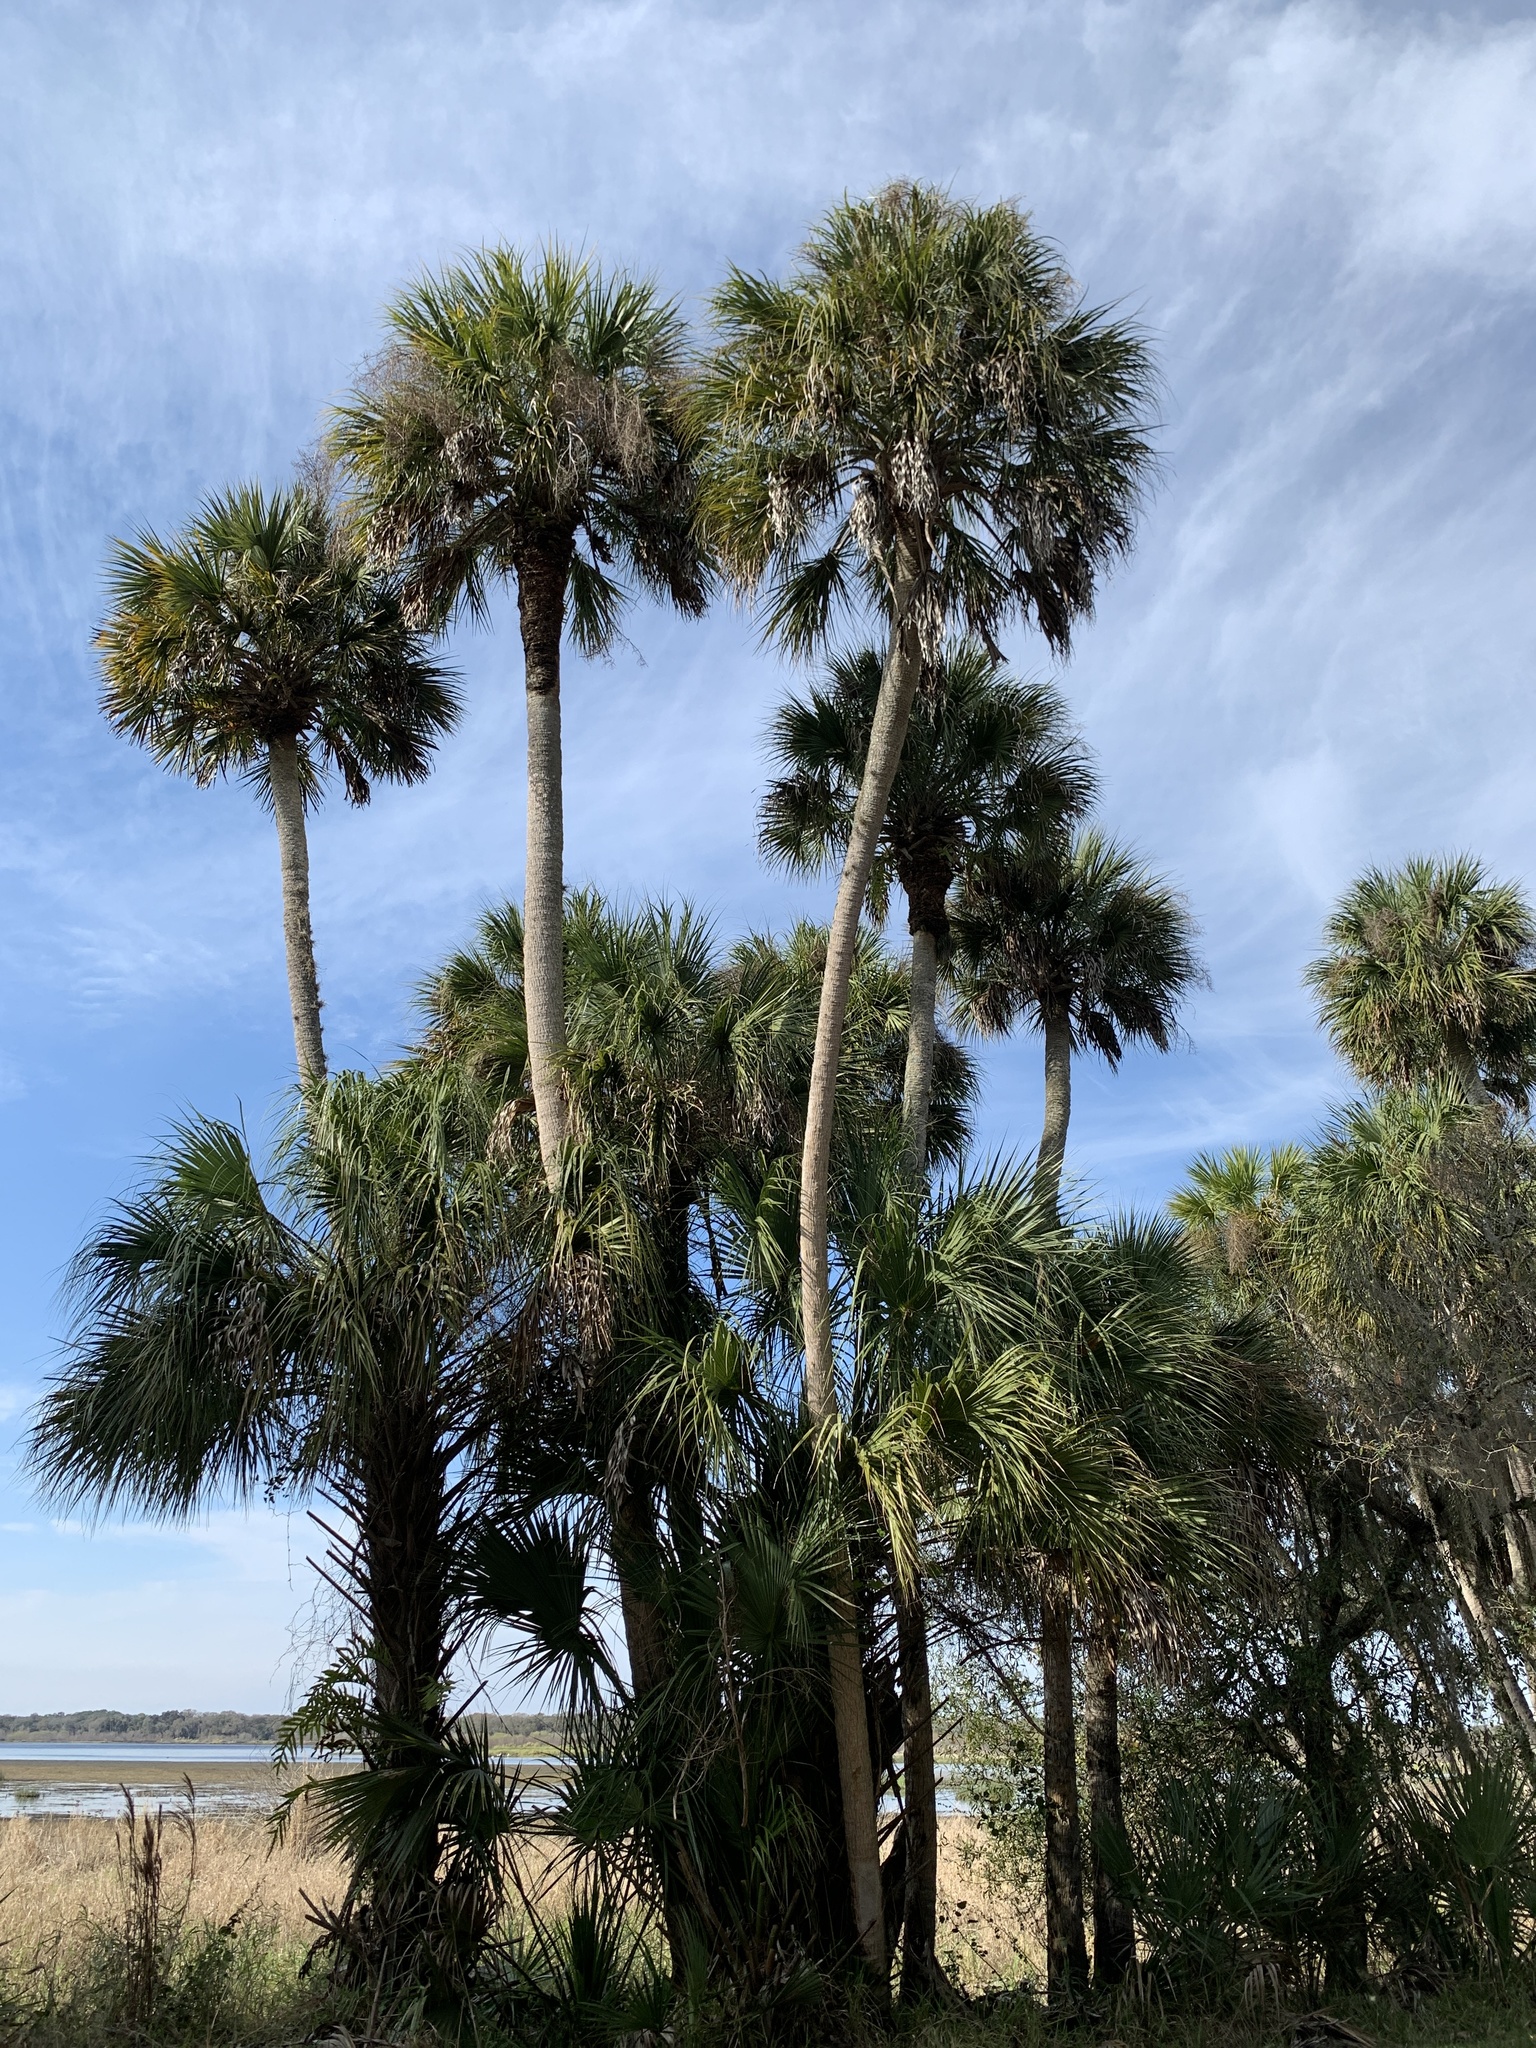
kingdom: Plantae
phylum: Tracheophyta
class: Liliopsida
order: Arecales
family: Arecaceae
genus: Sabal
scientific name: Sabal palmetto
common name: Blue palmetto
